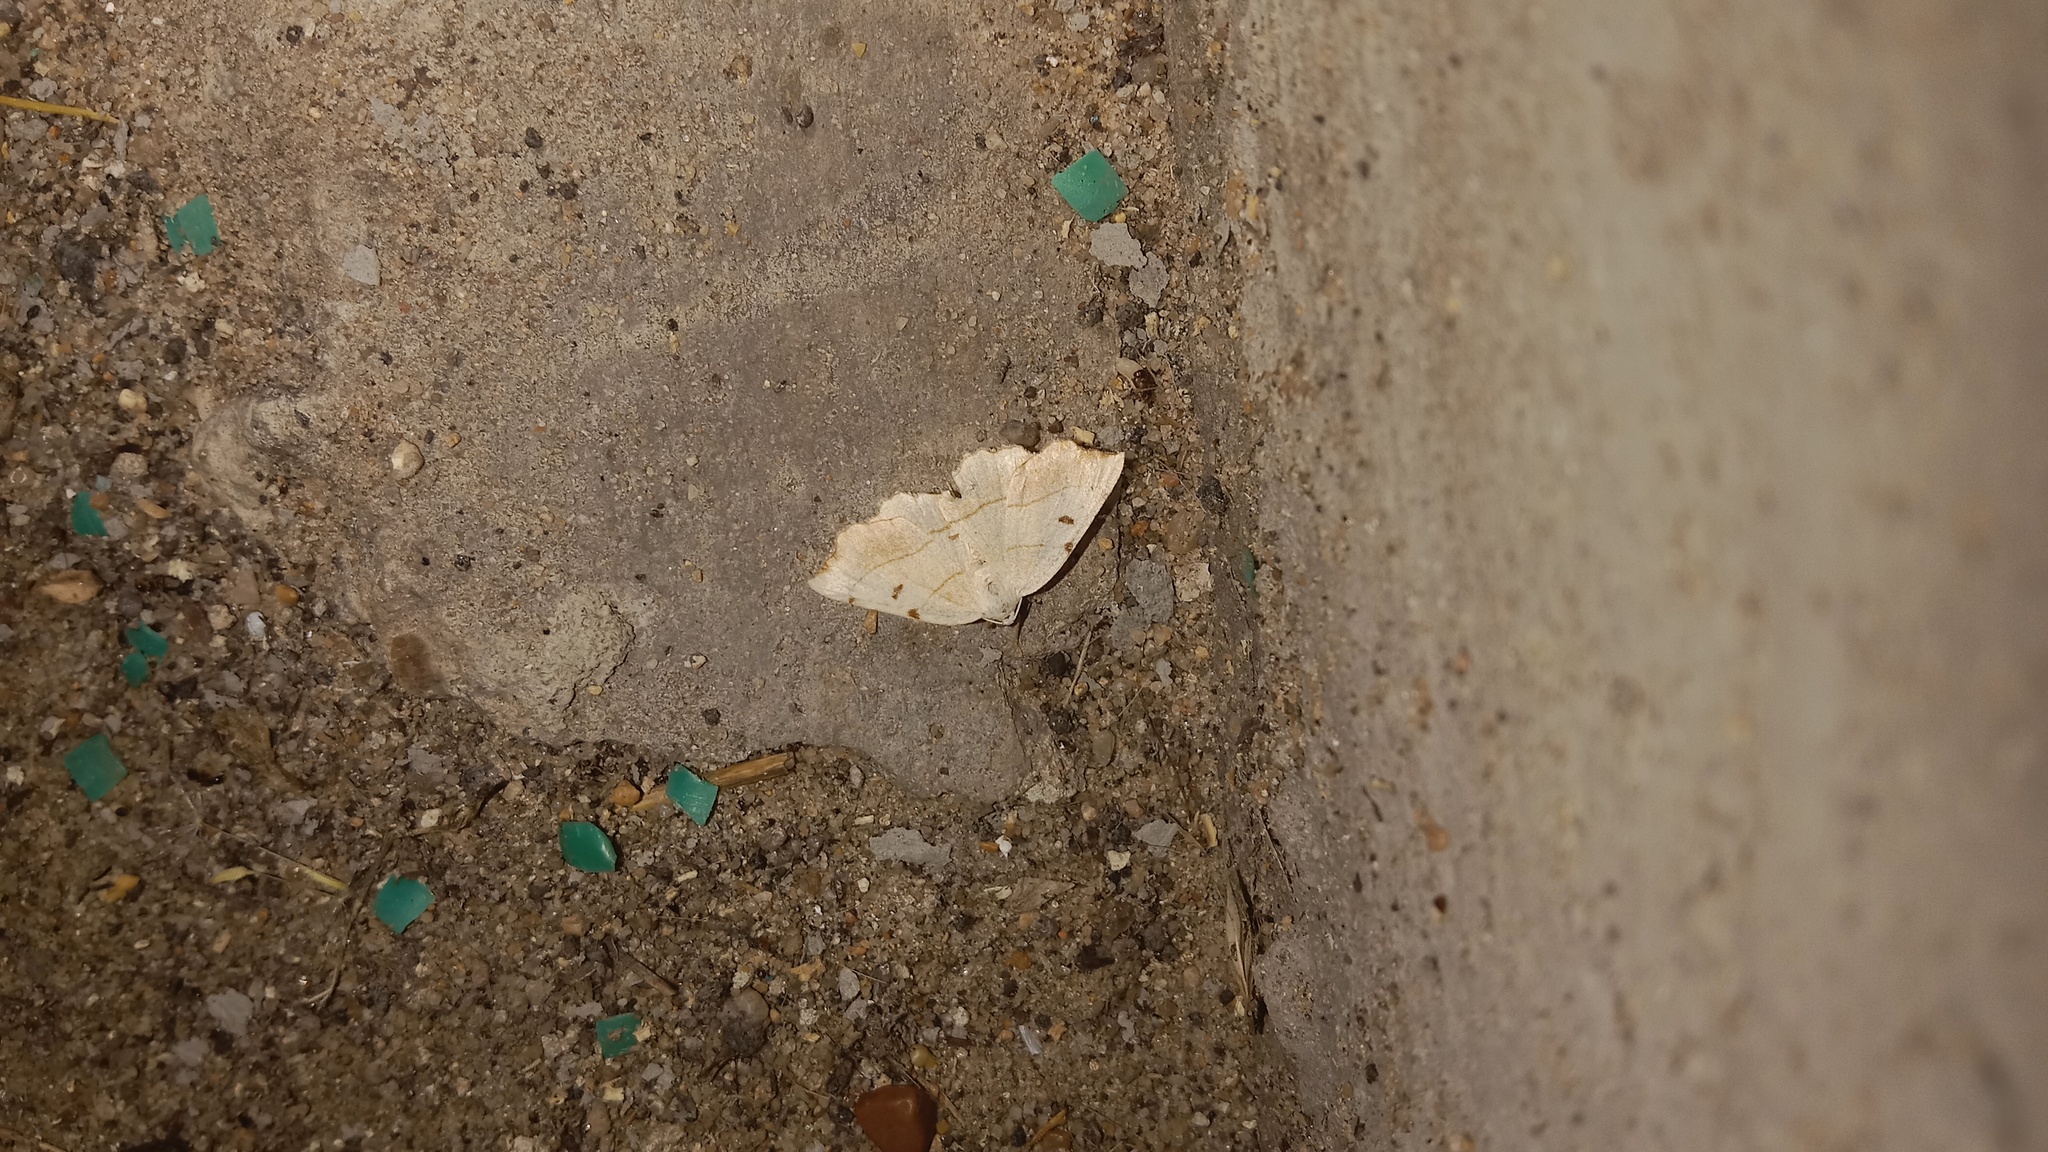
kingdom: Animalia
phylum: Arthropoda
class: Insecta
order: Lepidoptera
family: Geometridae
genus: Eilicrinia
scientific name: Eilicrinia trinotata
